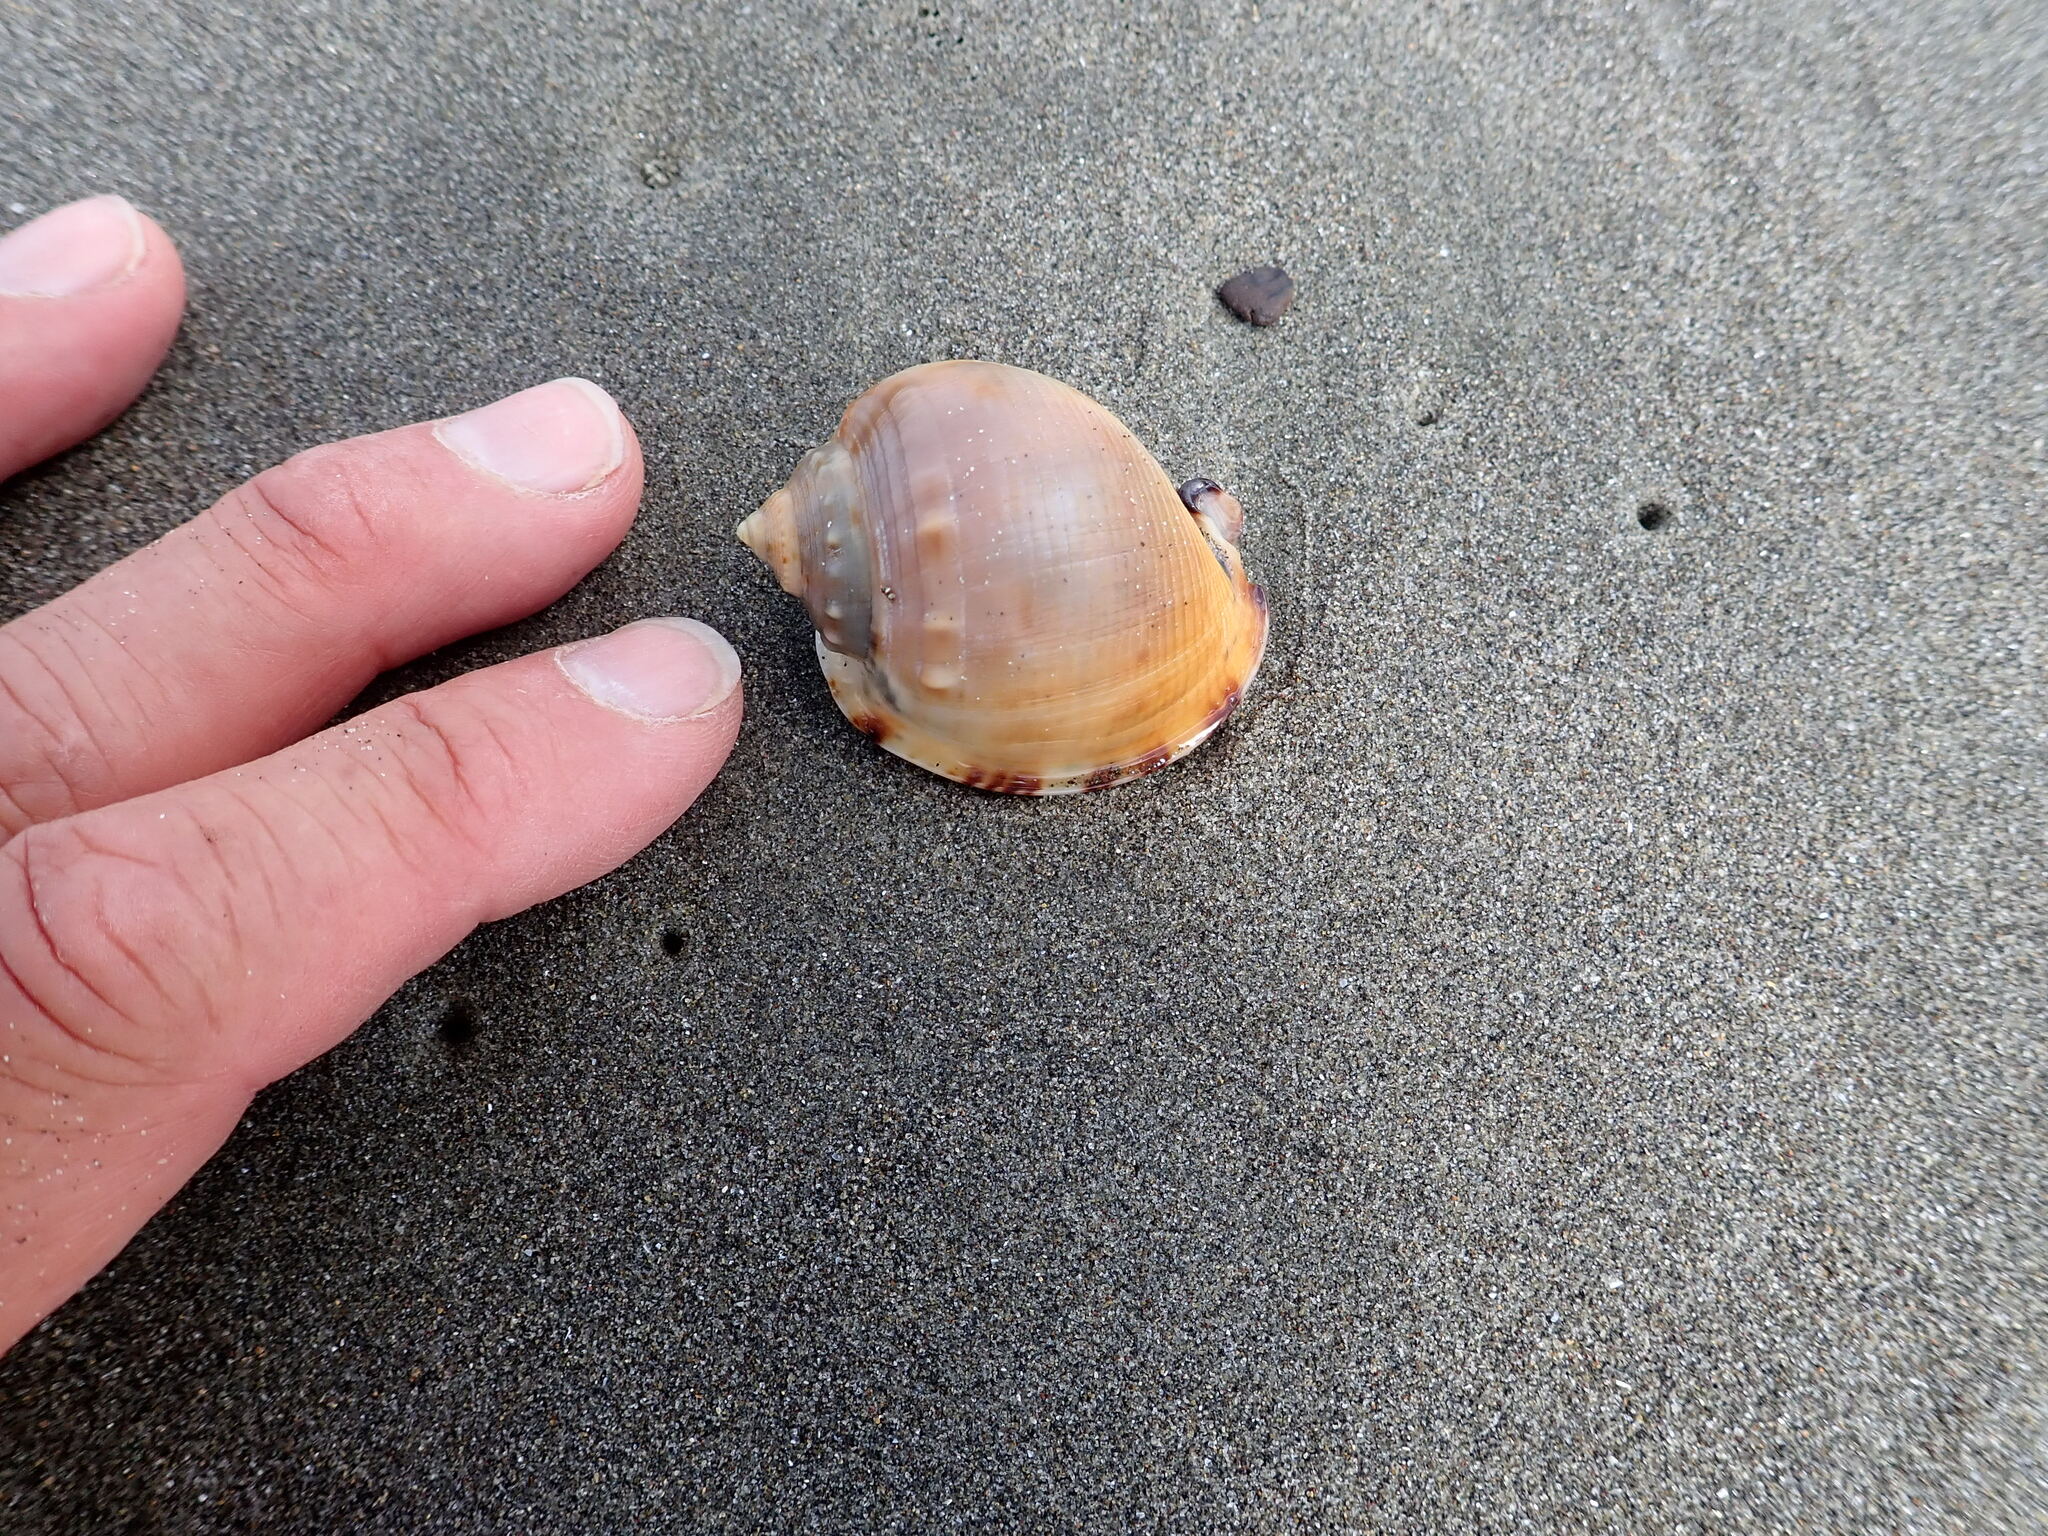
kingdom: Animalia
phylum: Mollusca
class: Gastropoda
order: Littorinimorpha
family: Cassidae
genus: Semicassis
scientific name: Semicassis pyrum
